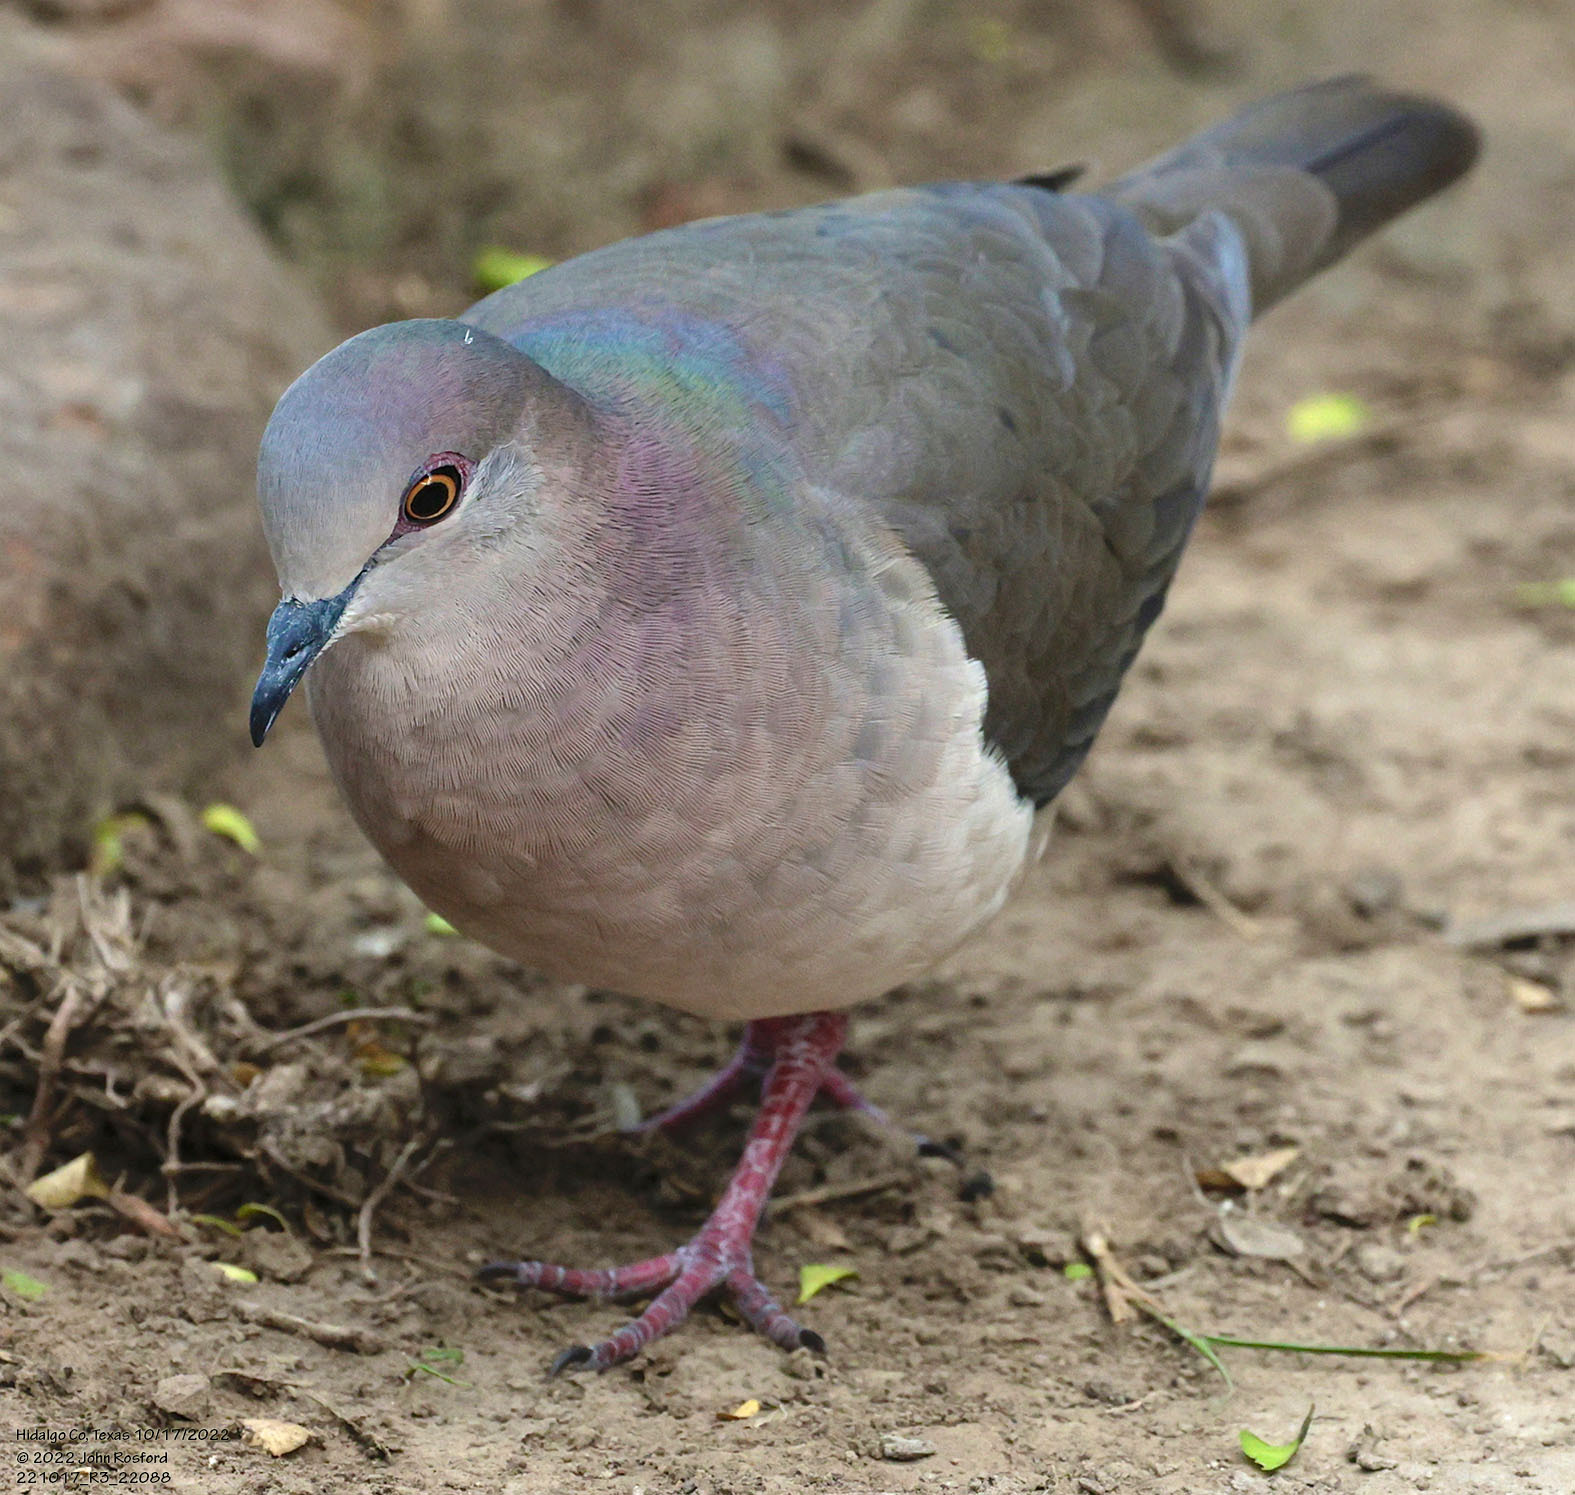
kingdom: Animalia
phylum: Chordata
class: Aves
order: Columbiformes
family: Columbidae
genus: Leptotila
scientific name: Leptotila verreauxi
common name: White-tipped dove
